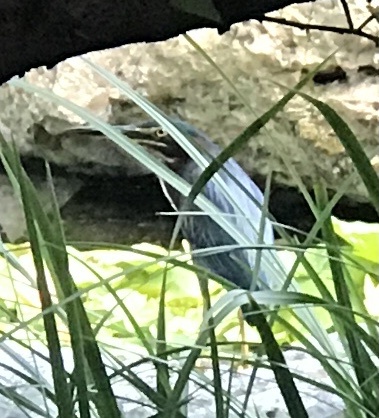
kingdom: Animalia
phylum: Chordata
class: Aves
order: Pelecaniformes
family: Ardeidae
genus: Butorides
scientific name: Butorides virescens
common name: Green heron
